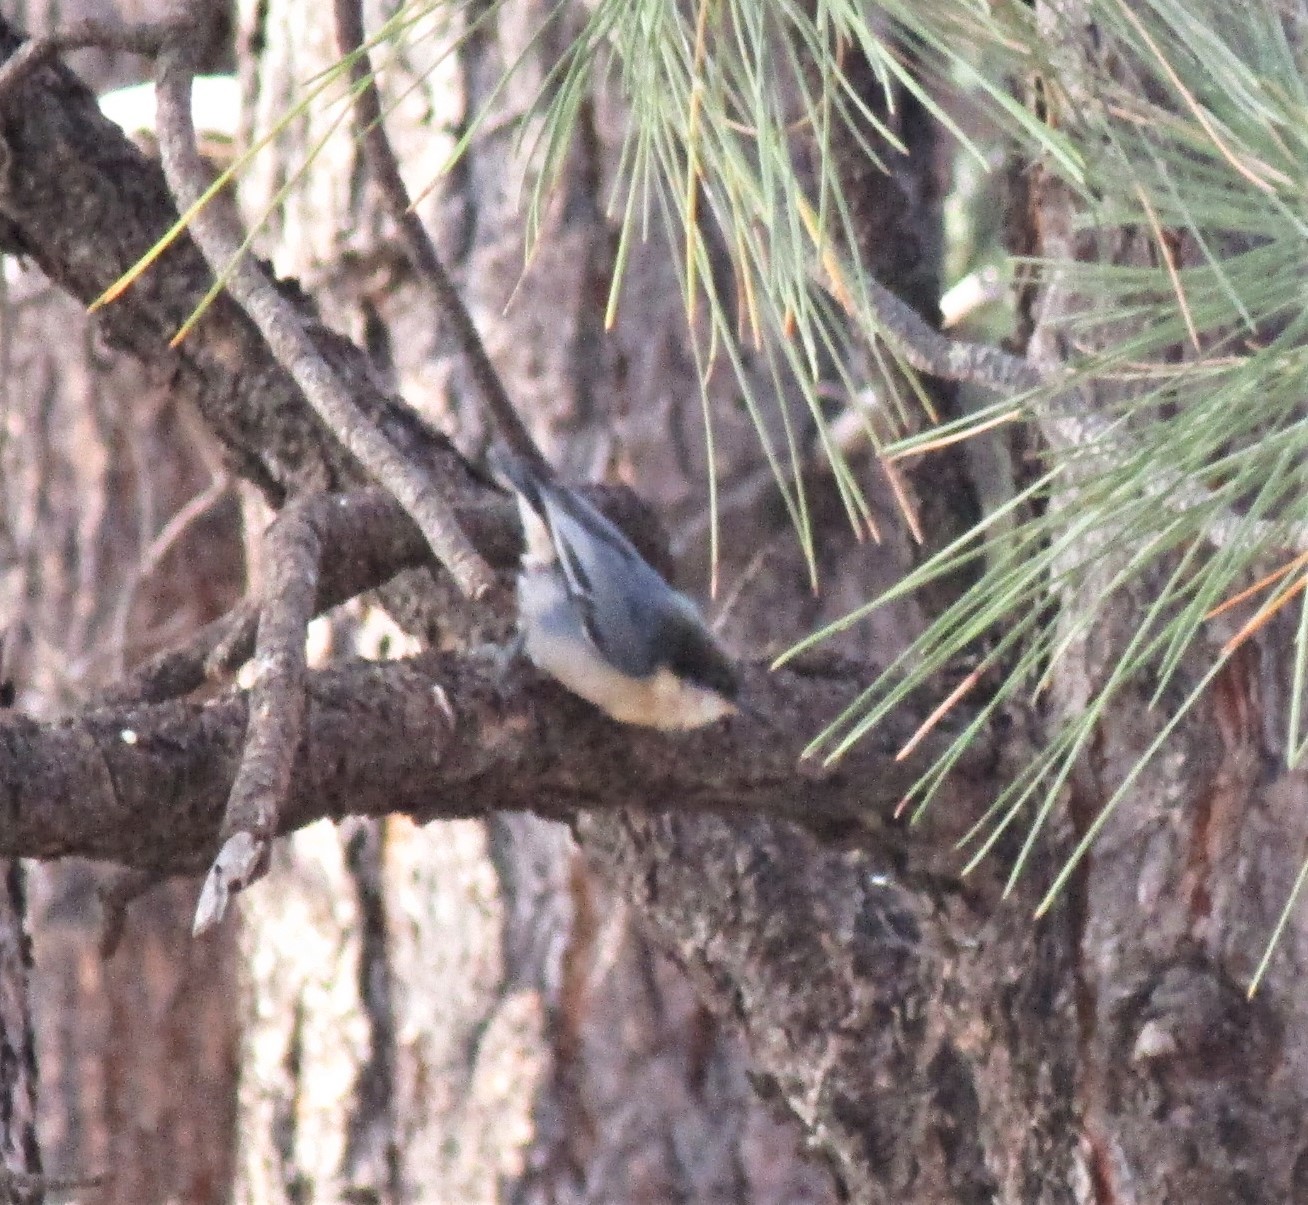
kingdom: Animalia
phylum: Chordata
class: Aves
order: Passeriformes
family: Sittidae
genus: Sitta
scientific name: Sitta pygmaea
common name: Pygmy nuthatch
